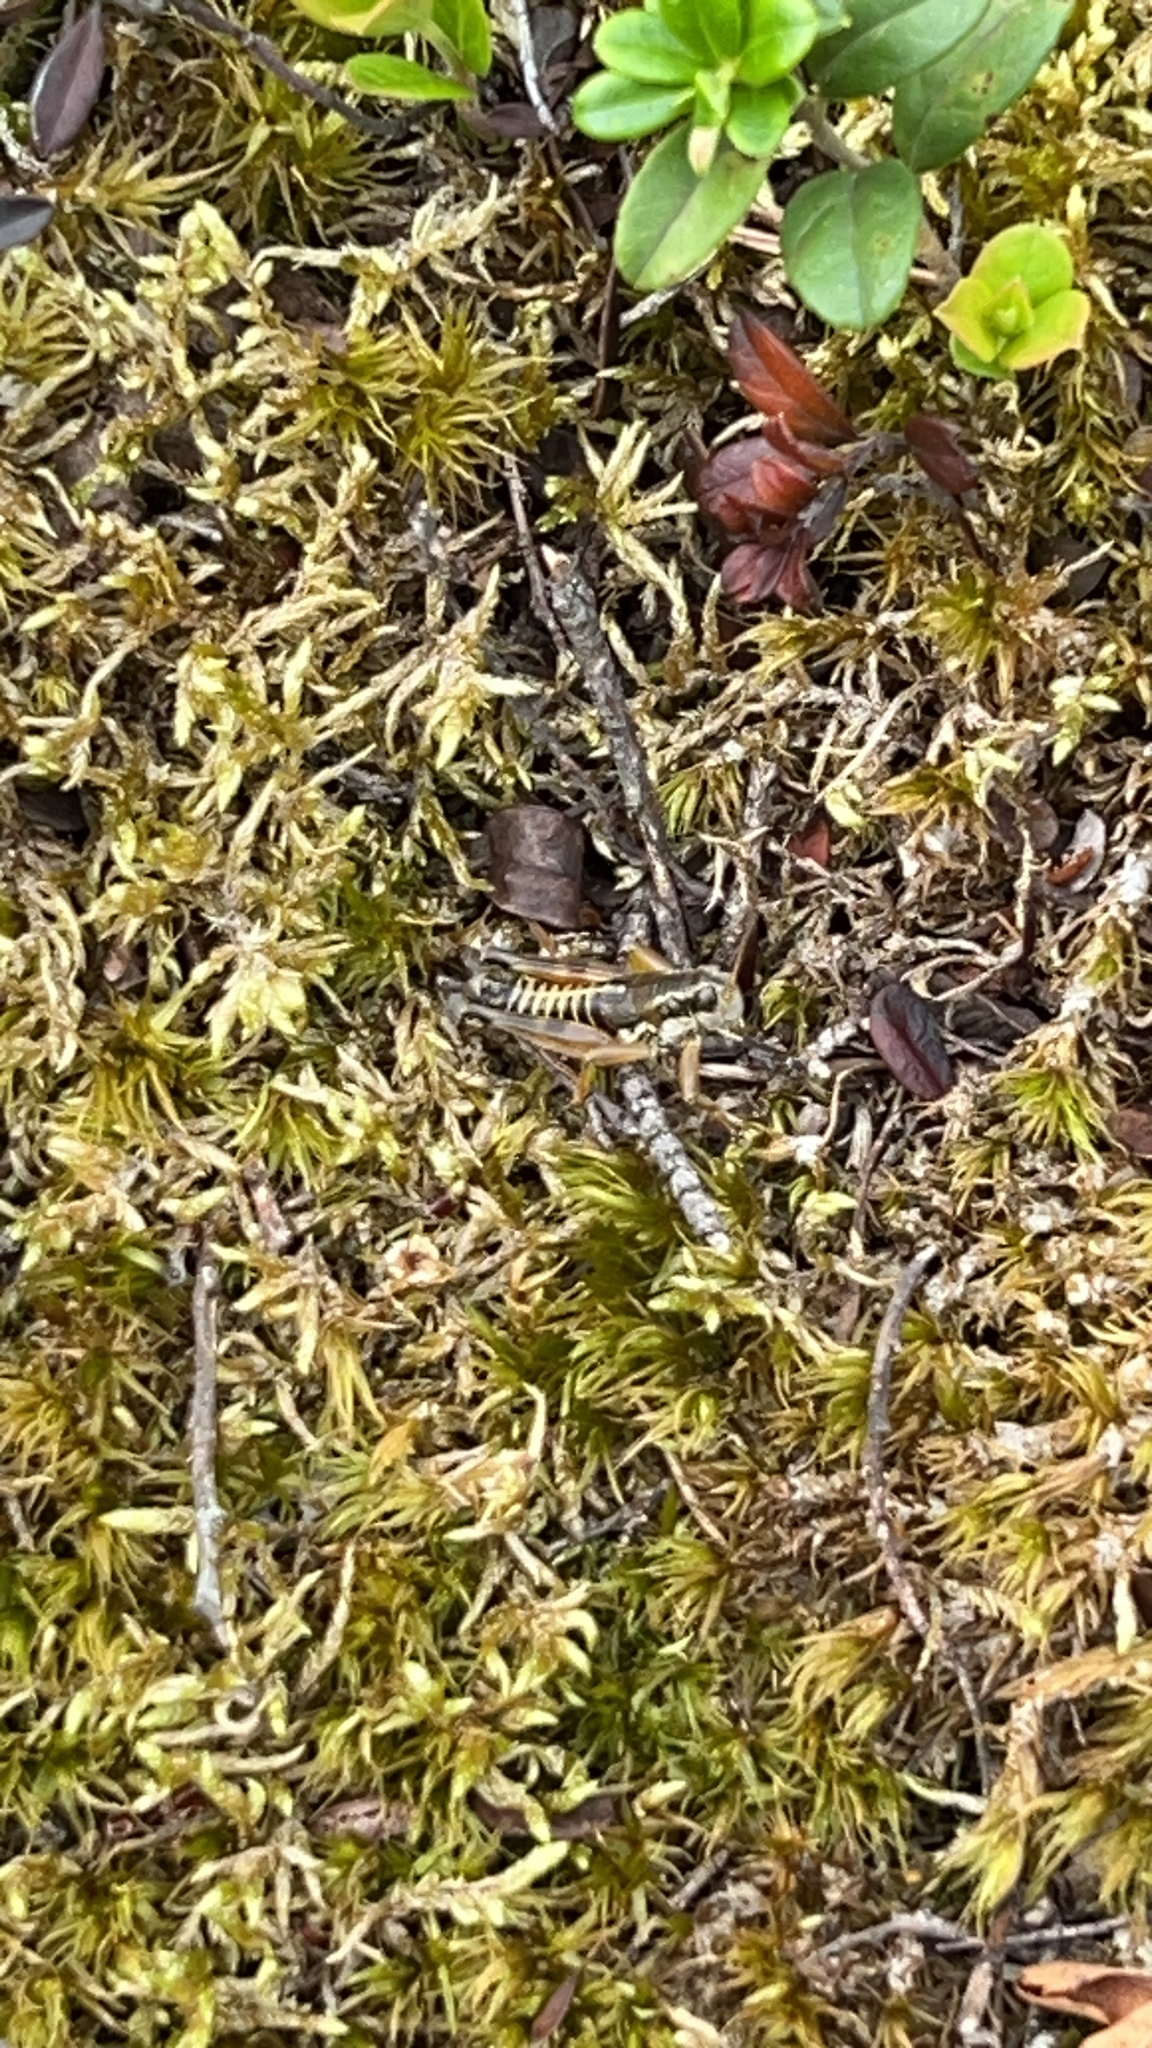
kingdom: Animalia
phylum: Arthropoda
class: Insecta
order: Orthoptera
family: Acrididae
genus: Podisma
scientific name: Podisma pedestris
